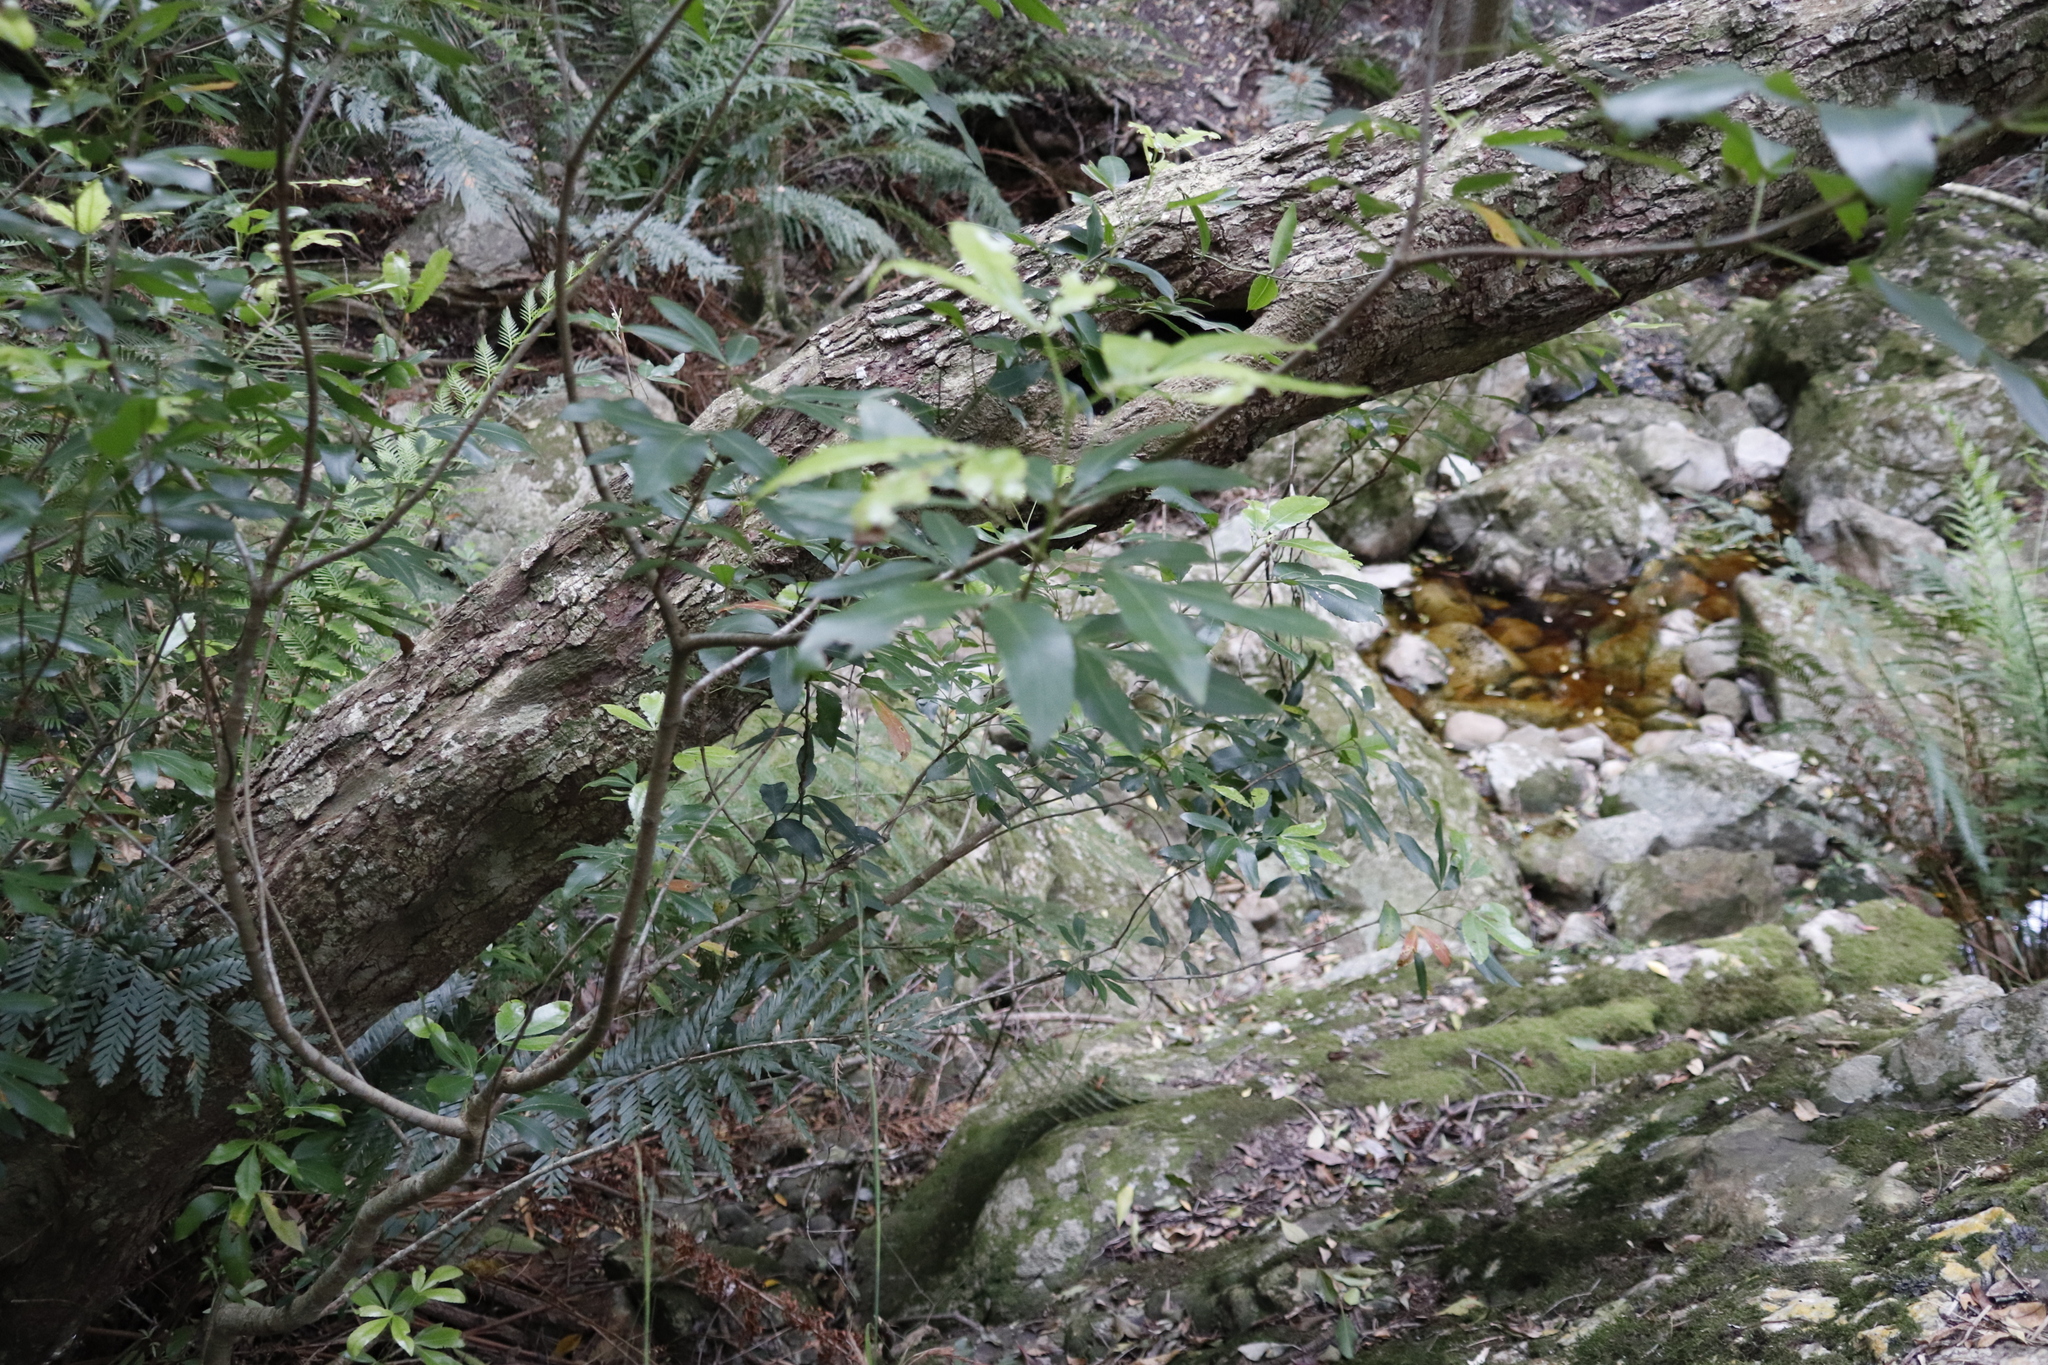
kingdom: Plantae
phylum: Tracheophyta
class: Magnoliopsida
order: Oxalidales
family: Cunoniaceae
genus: Platylophus
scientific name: Platylophus trifoliatus
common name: White alder
